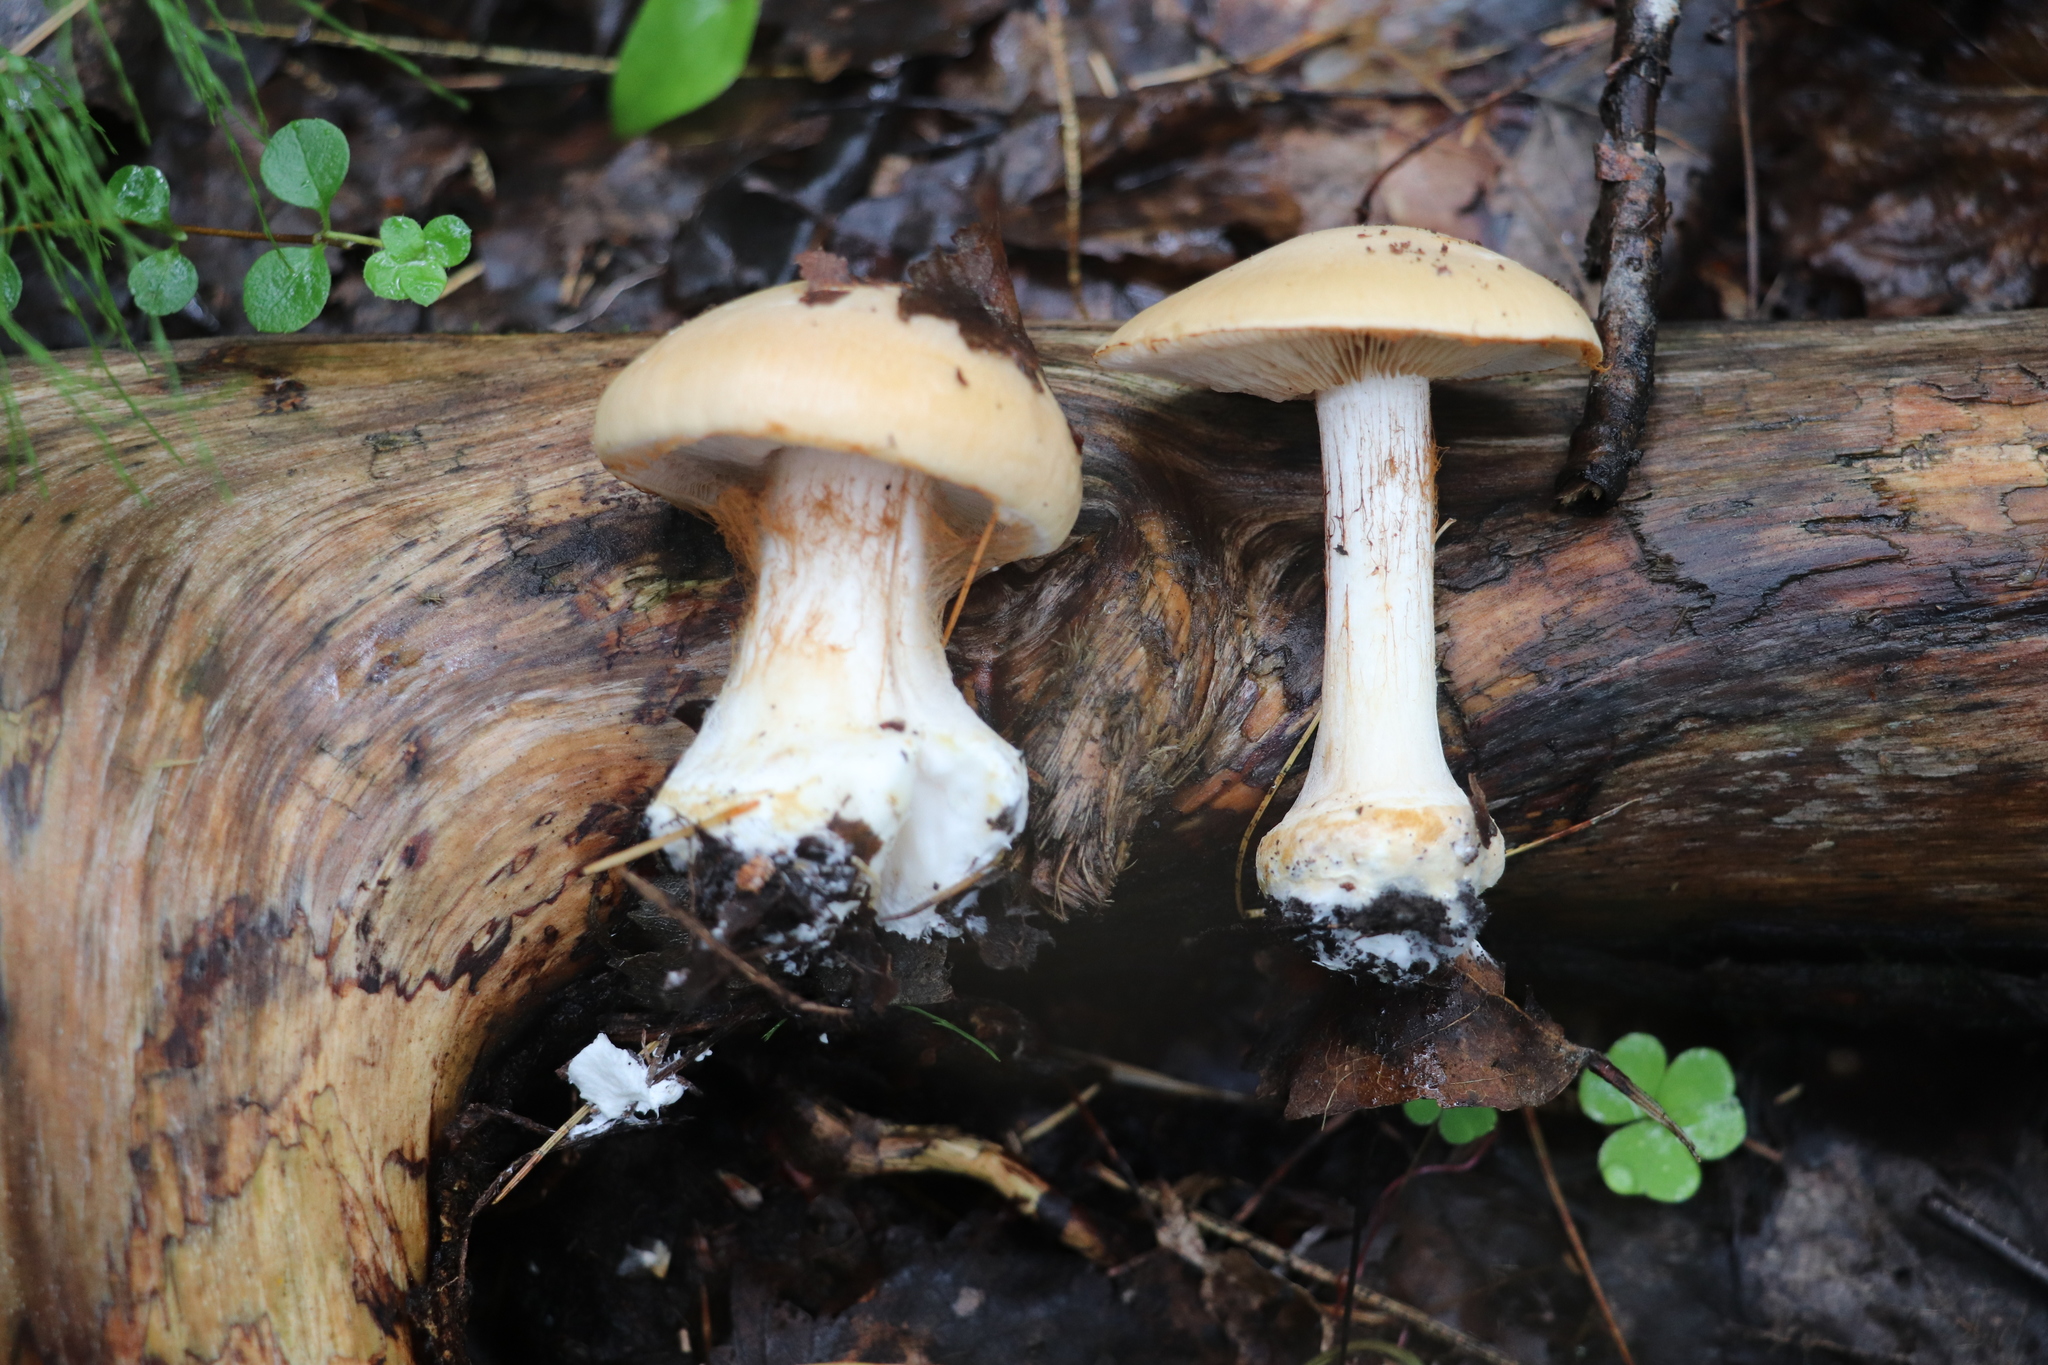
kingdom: Fungi
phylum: Basidiomycota
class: Agaricomycetes
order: Agaricales
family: Cortinariaceae
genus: Thaxterogaster
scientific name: Thaxterogaster talus
